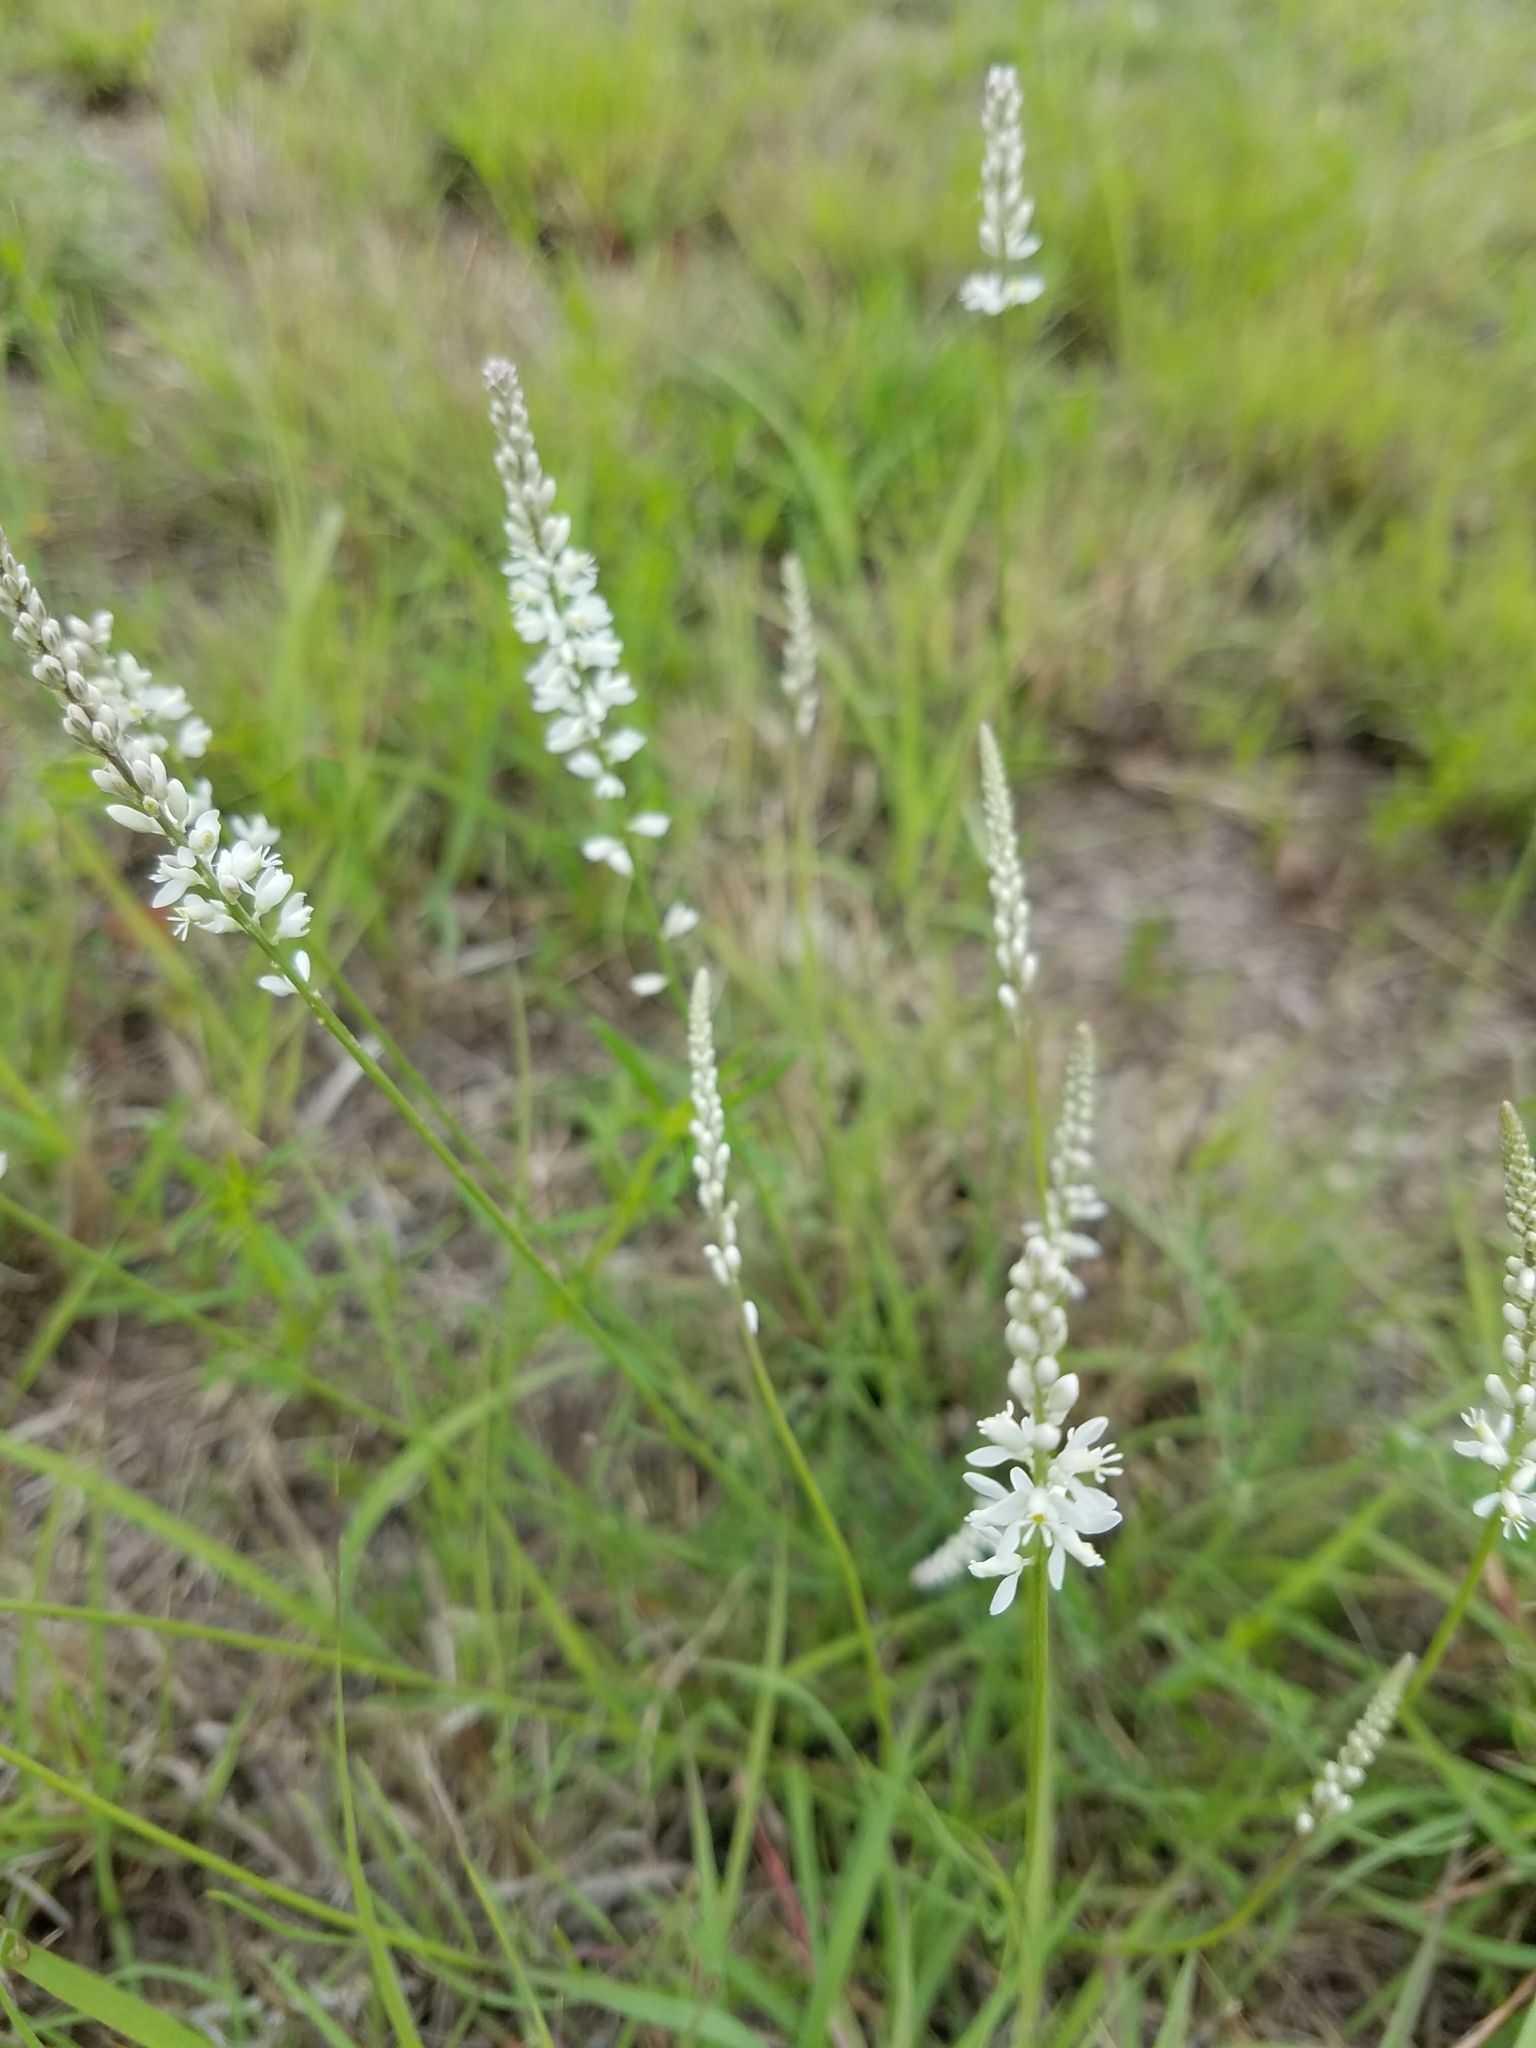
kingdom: Plantae
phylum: Tracheophyta
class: Magnoliopsida
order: Fabales
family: Polygalaceae
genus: Polygala
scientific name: Polygala alba
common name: White milkwort
